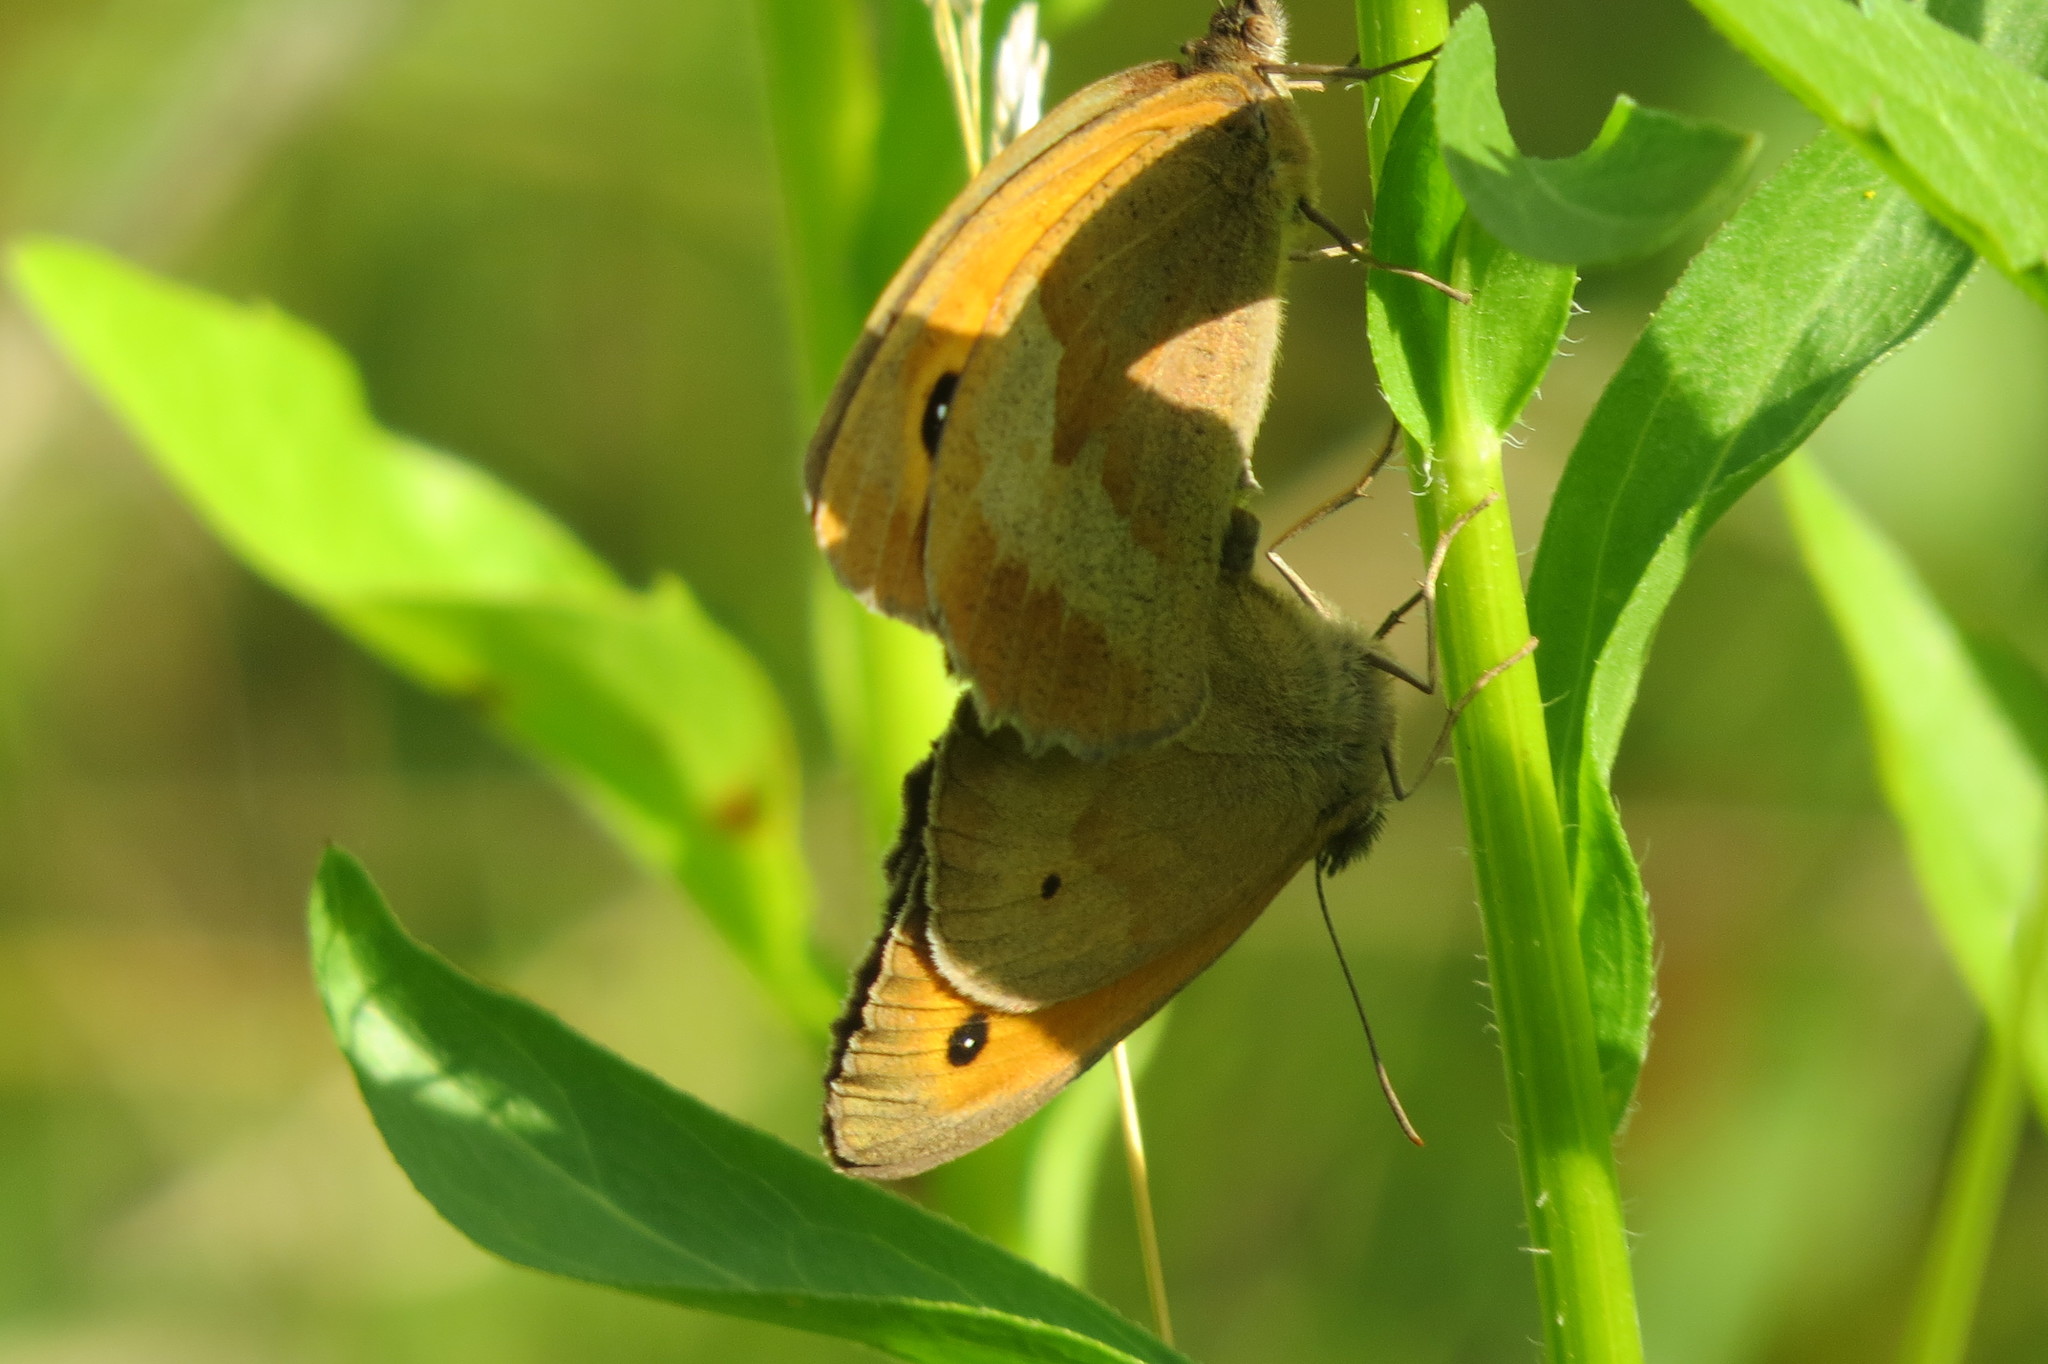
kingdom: Animalia
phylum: Arthropoda
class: Insecta
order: Lepidoptera
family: Nymphalidae
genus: Maniola
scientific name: Maniola jurtina
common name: Meadow brown
